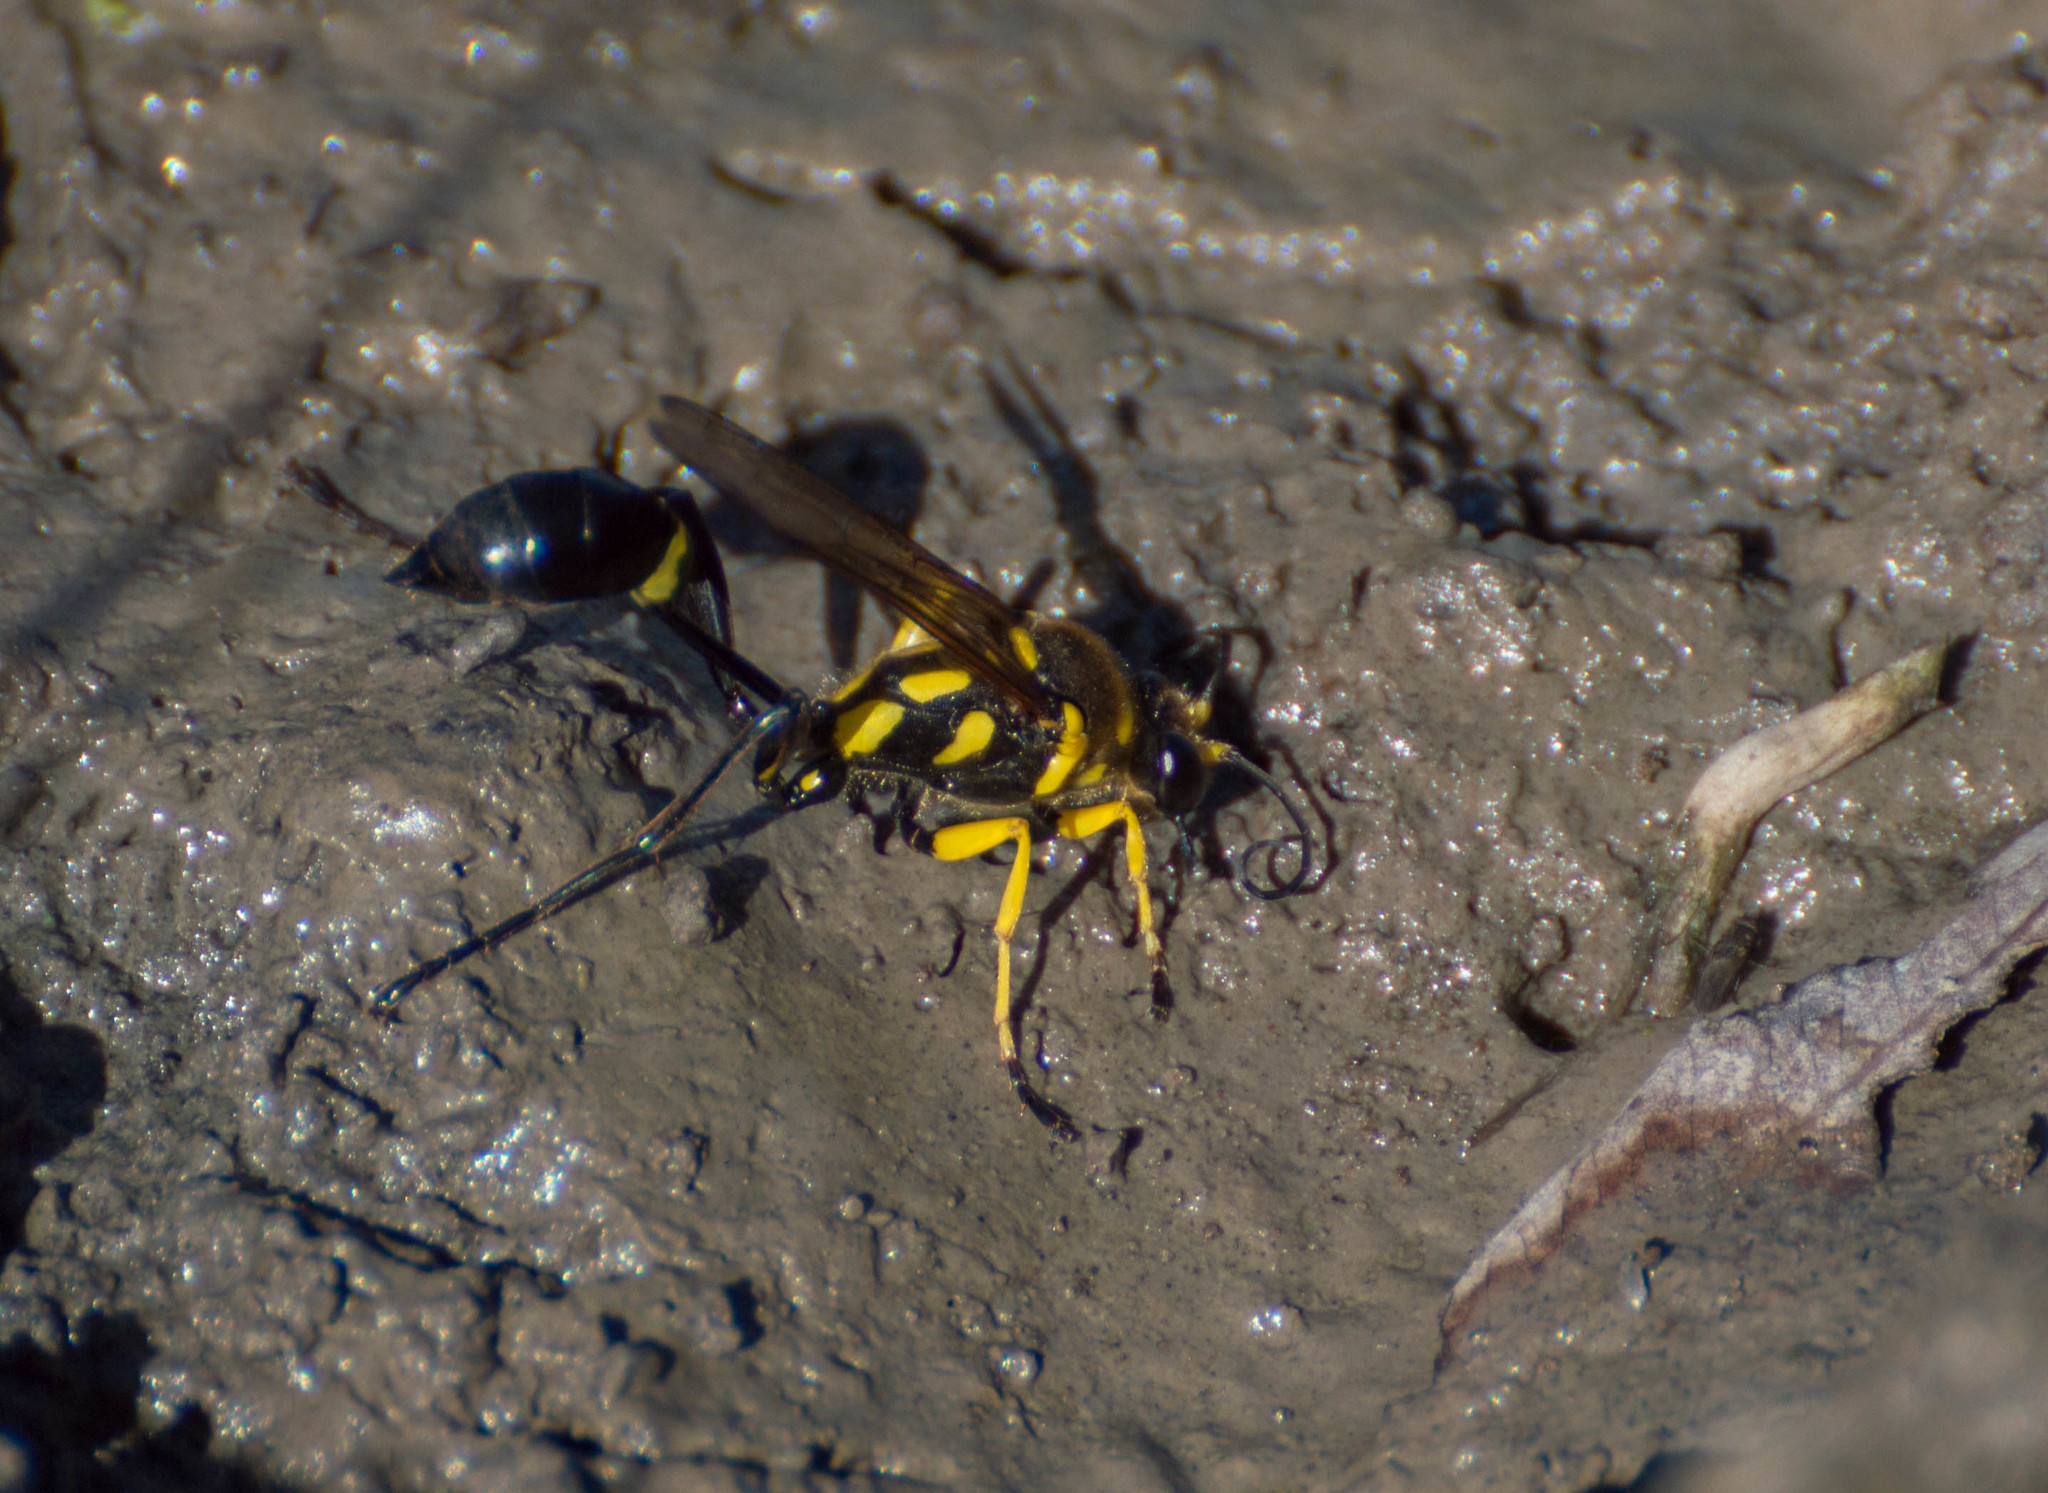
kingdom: Animalia
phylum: Arthropoda
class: Insecta
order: Hymenoptera
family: Sphecidae
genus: Sceliphron
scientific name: Sceliphron fistularium
